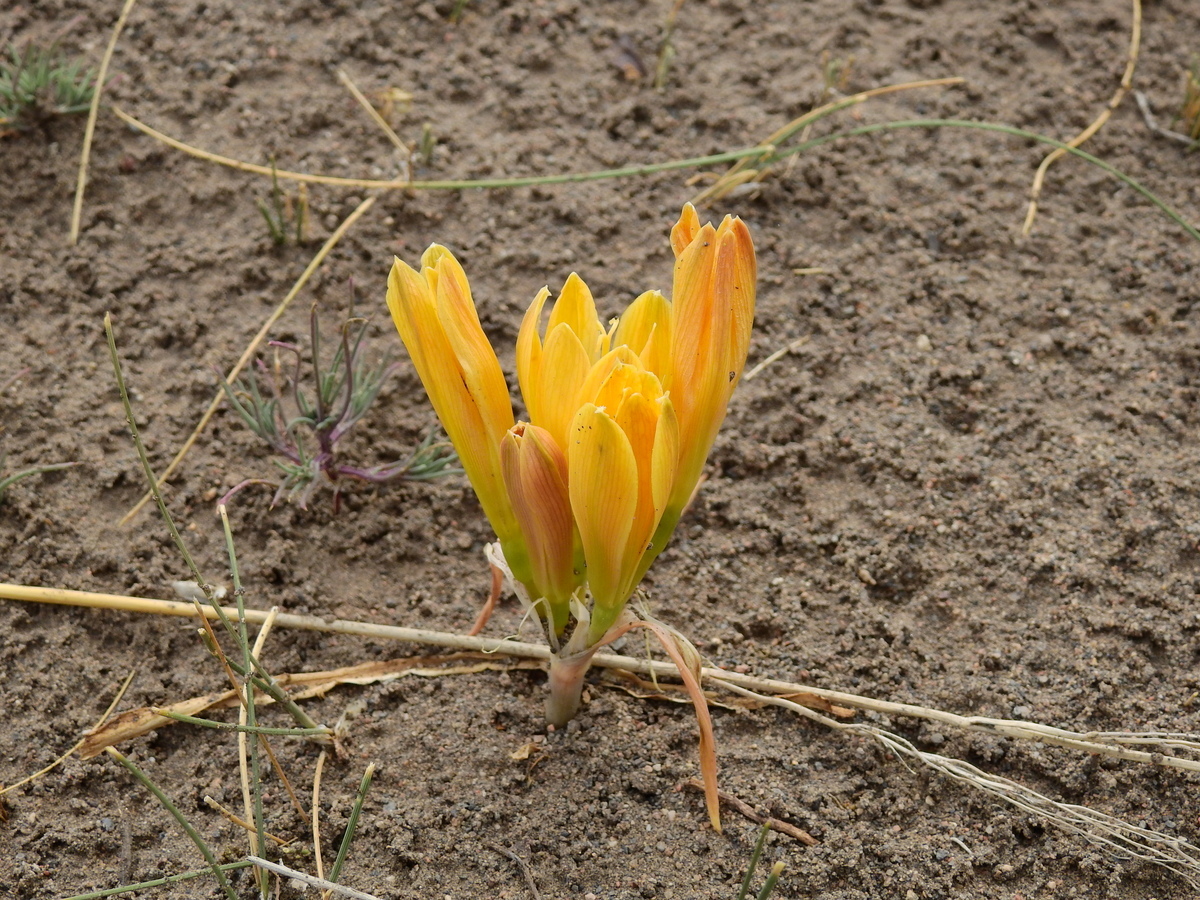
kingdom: Plantae
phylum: Tracheophyta
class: Liliopsida
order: Asparagales
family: Amaryllidaceae
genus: Zephyranthes
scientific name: Zephyranthes gilliesiana
